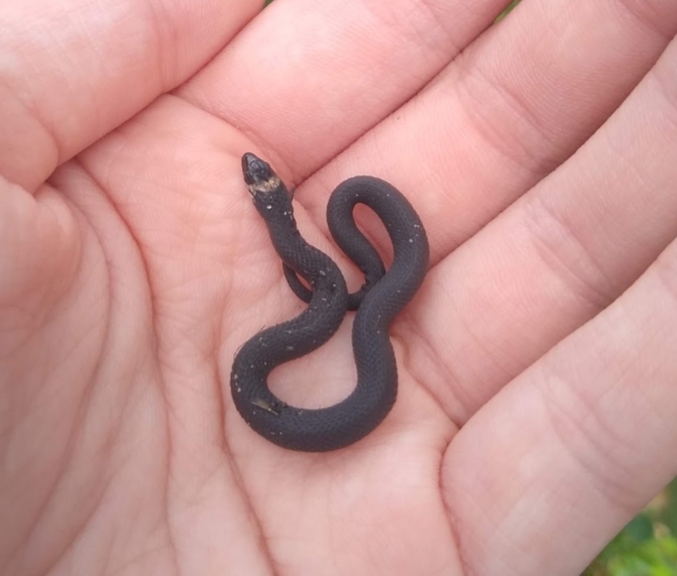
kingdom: Animalia
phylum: Chordata
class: Squamata
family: Colubridae
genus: Haldea
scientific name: Haldea striatula
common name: Rough earth snake
